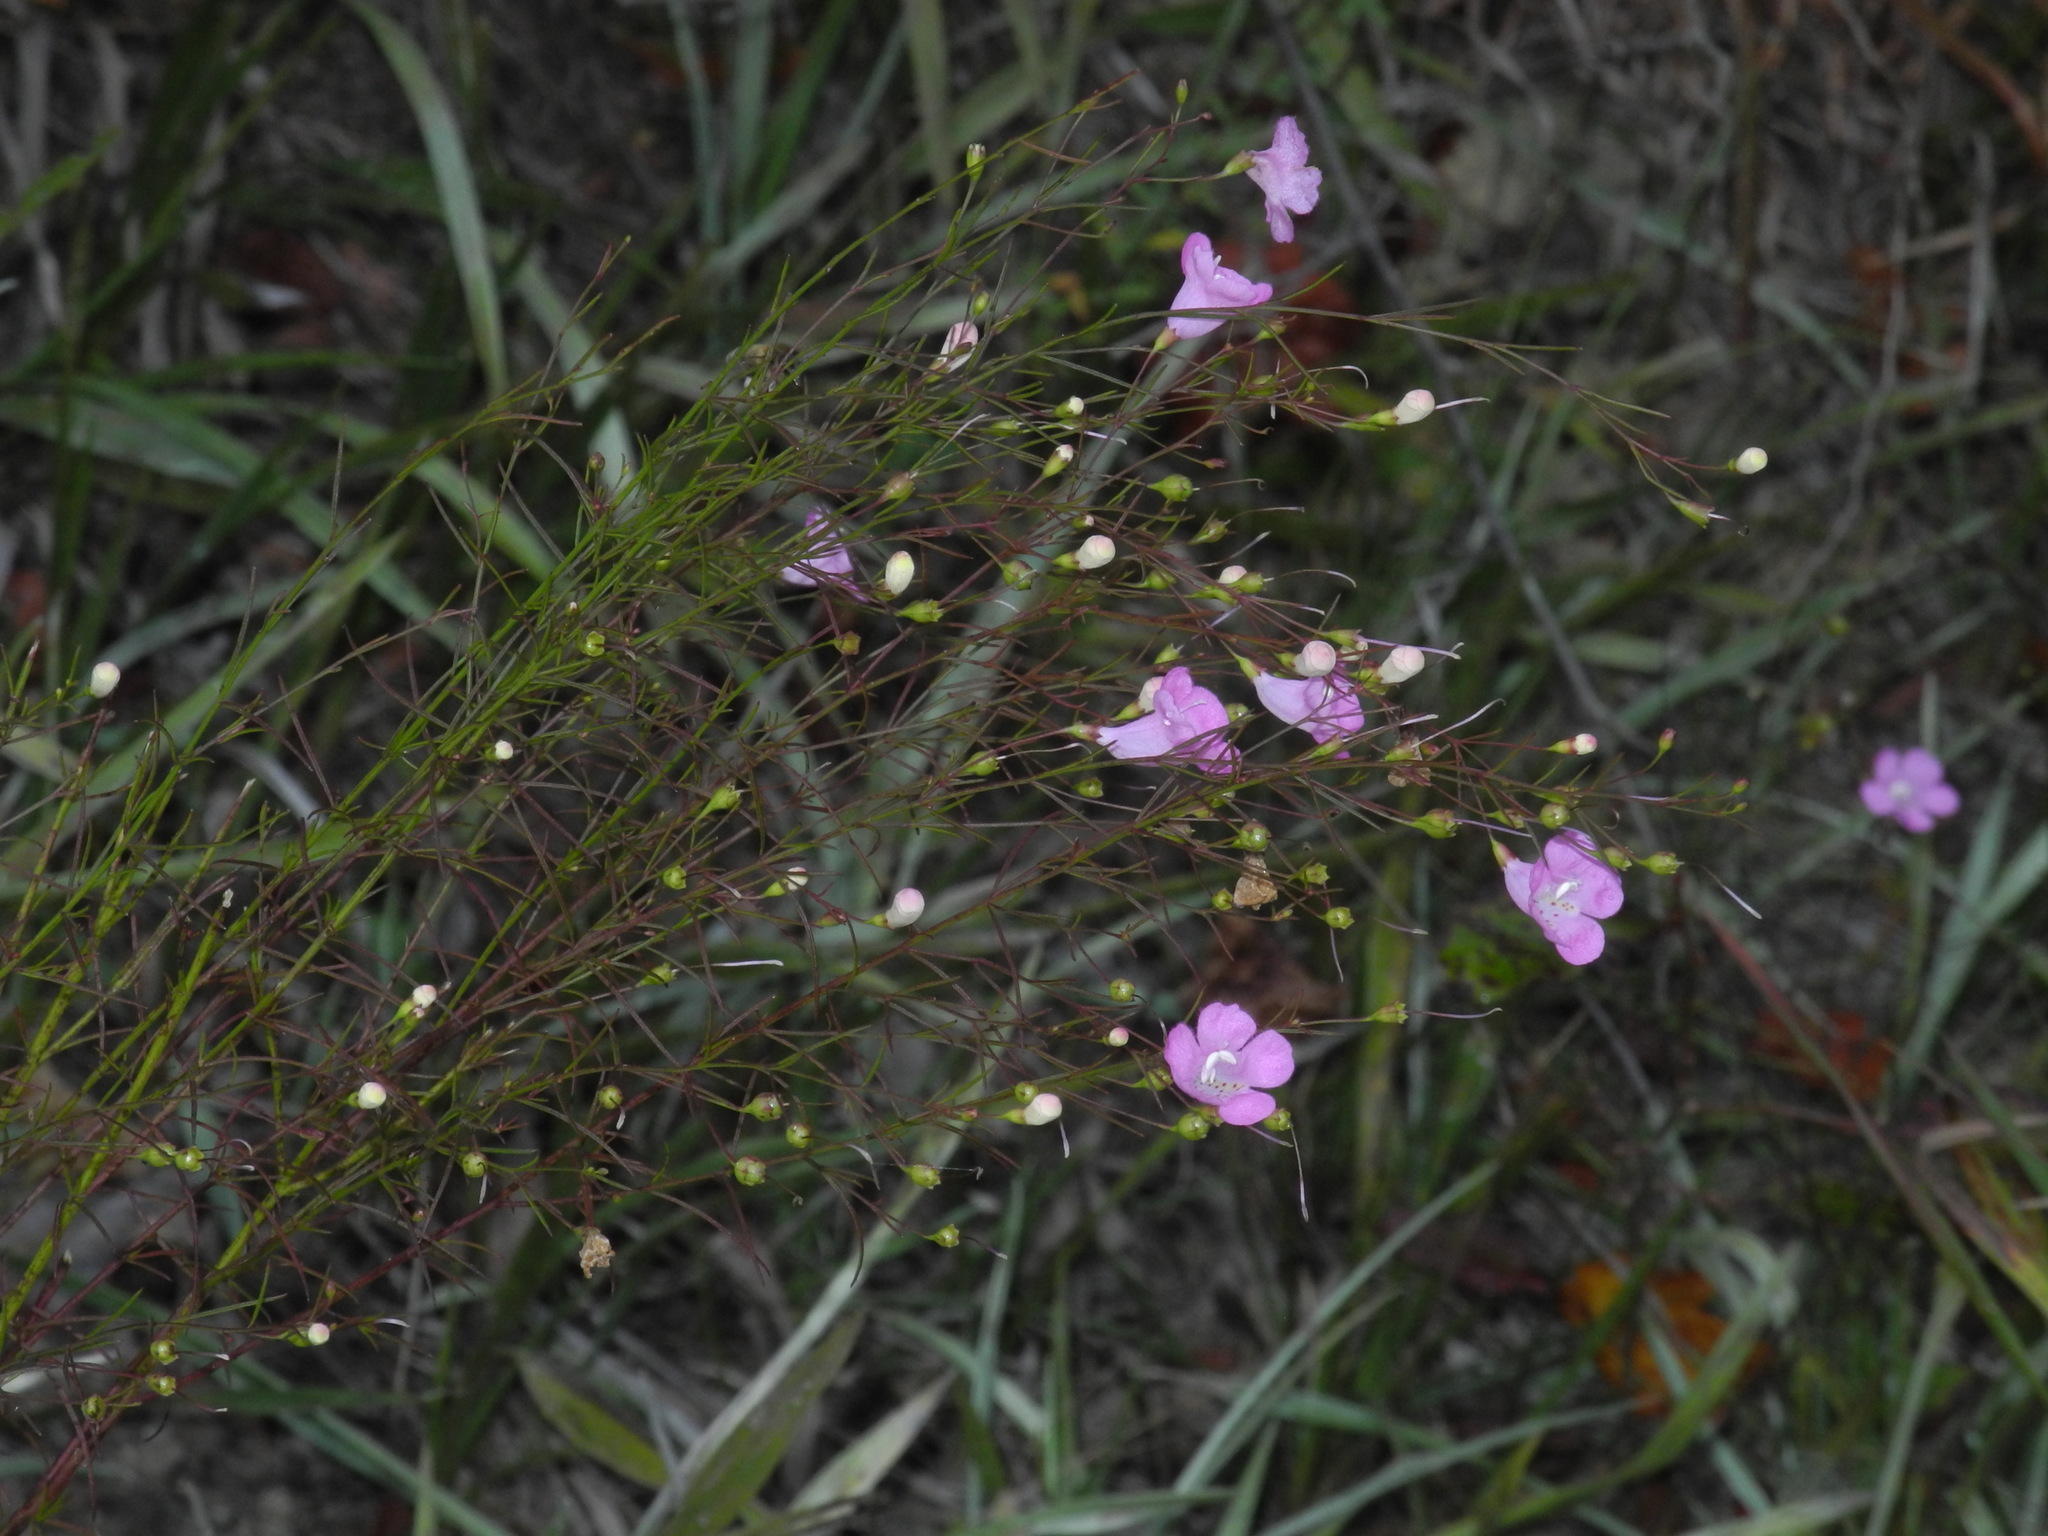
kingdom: Plantae
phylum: Tracheophyta
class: Magnoliopsida
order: Lamiales
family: Orobanchaceae
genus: Agalinis
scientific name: Agalinis tenuifolia
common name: Slender agalinis
